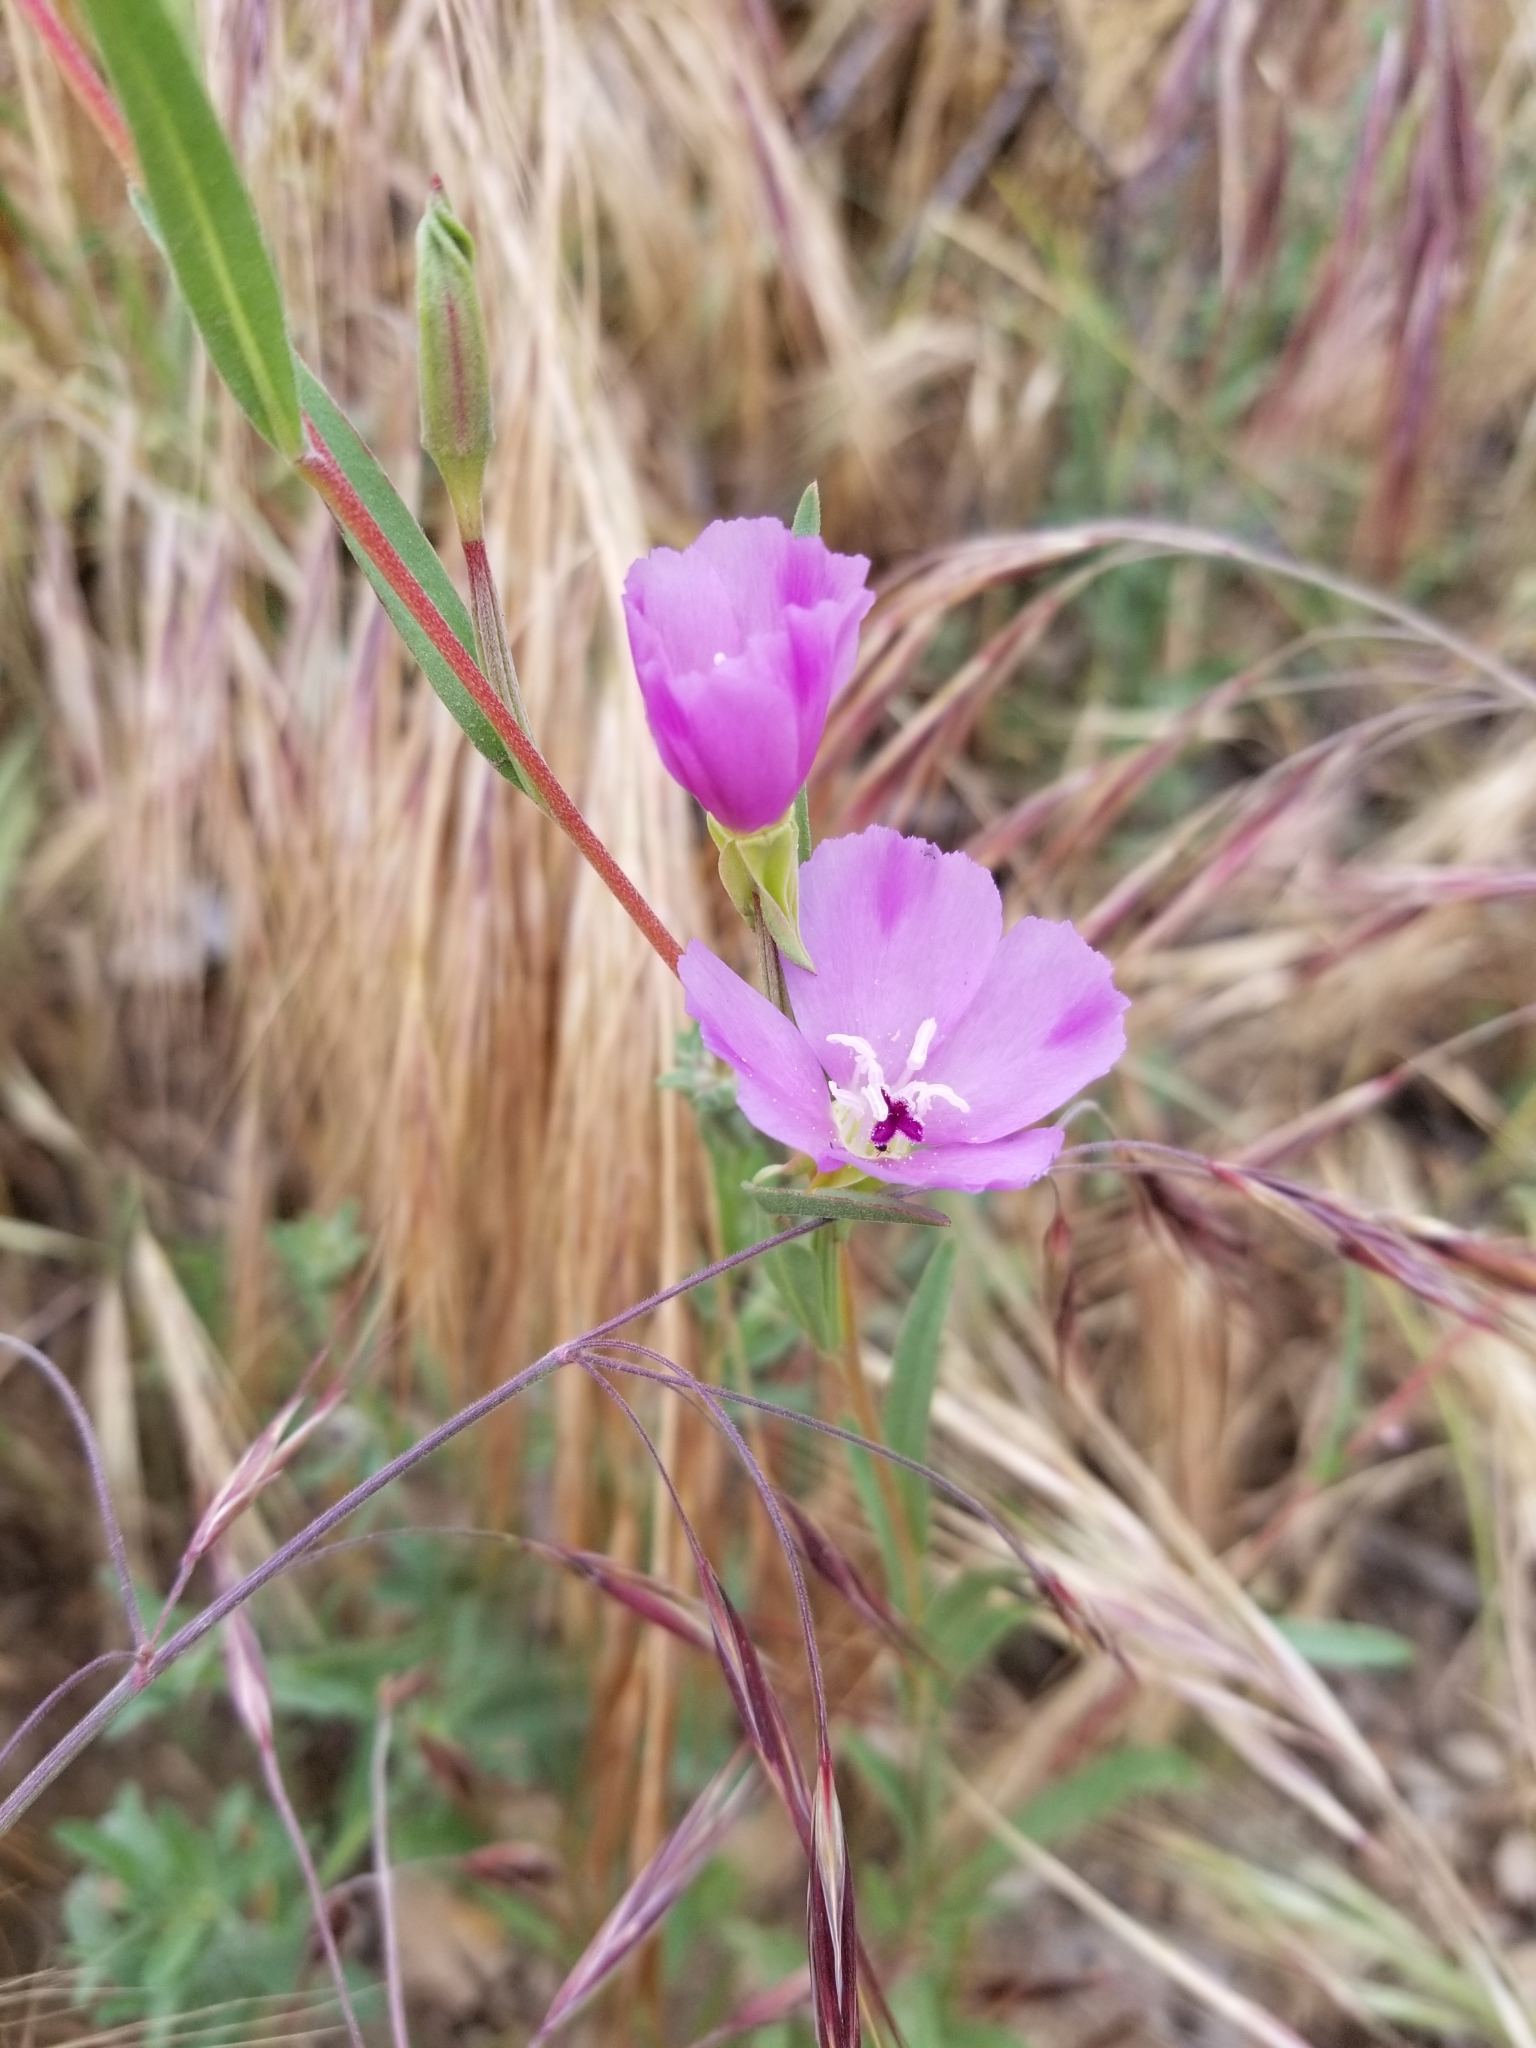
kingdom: Plantae
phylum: Tracheophyta
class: Magnoliopsida
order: Myrtales
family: Onagraceae
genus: Clarkia
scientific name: Clarkia purpurea
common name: Purple clarkia
